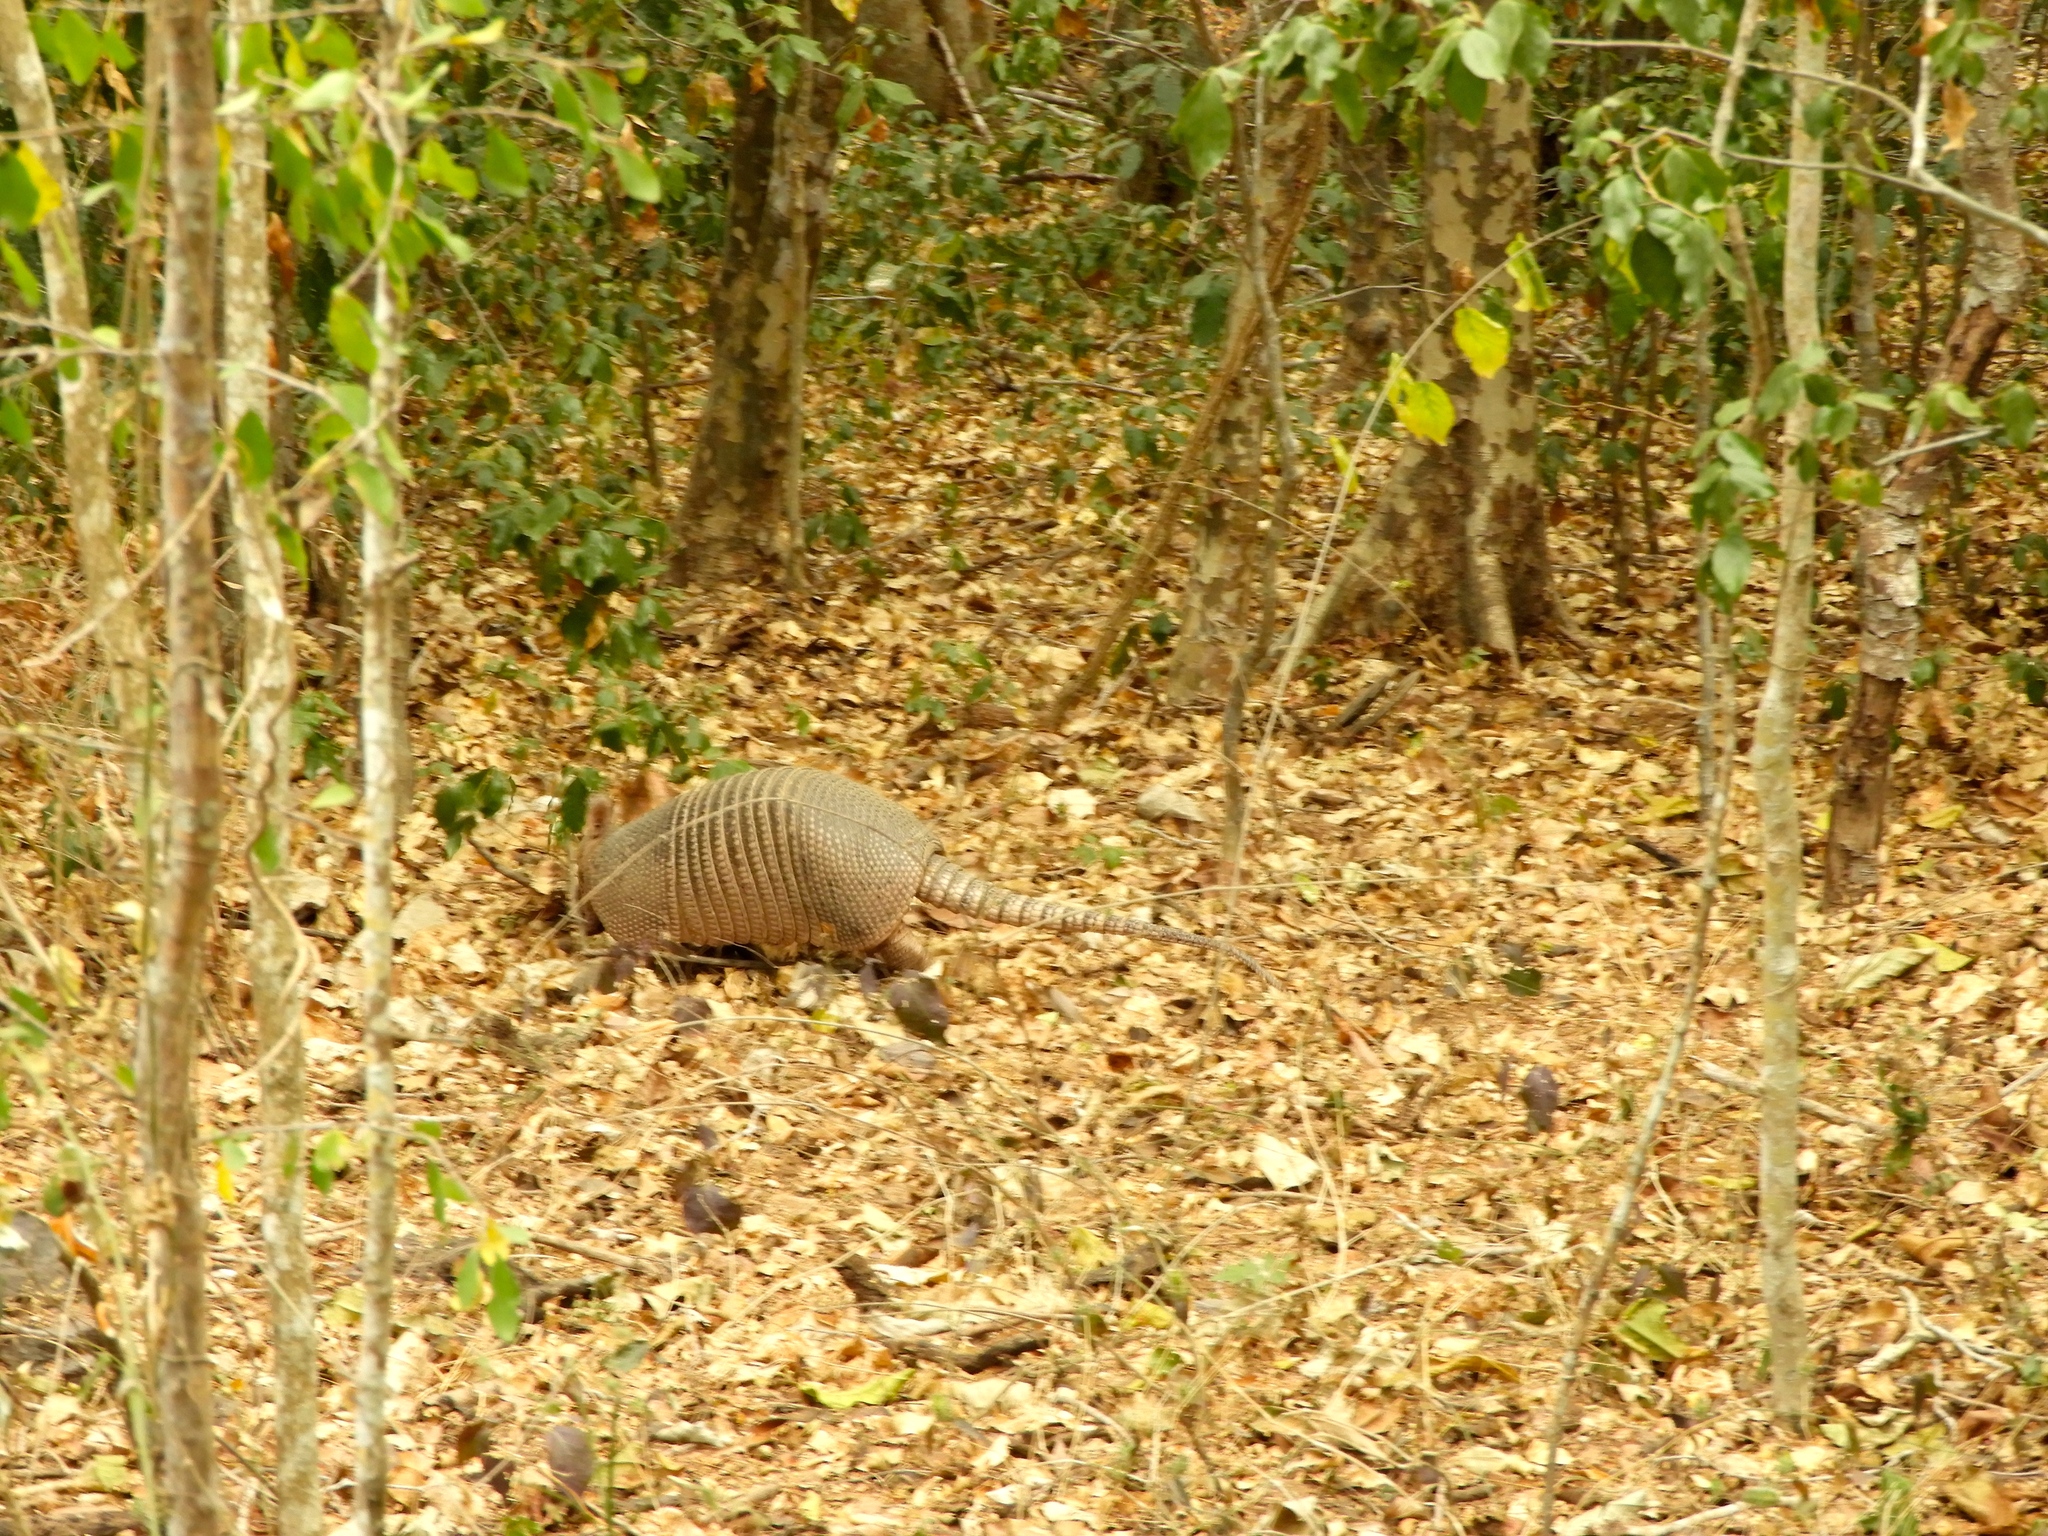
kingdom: Animalia
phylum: Chordata
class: Mammalia
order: Cingulata
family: Dasypodidae
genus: Dasypus
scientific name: Dasypus novemcinctus
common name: Nine-banded armadillo
